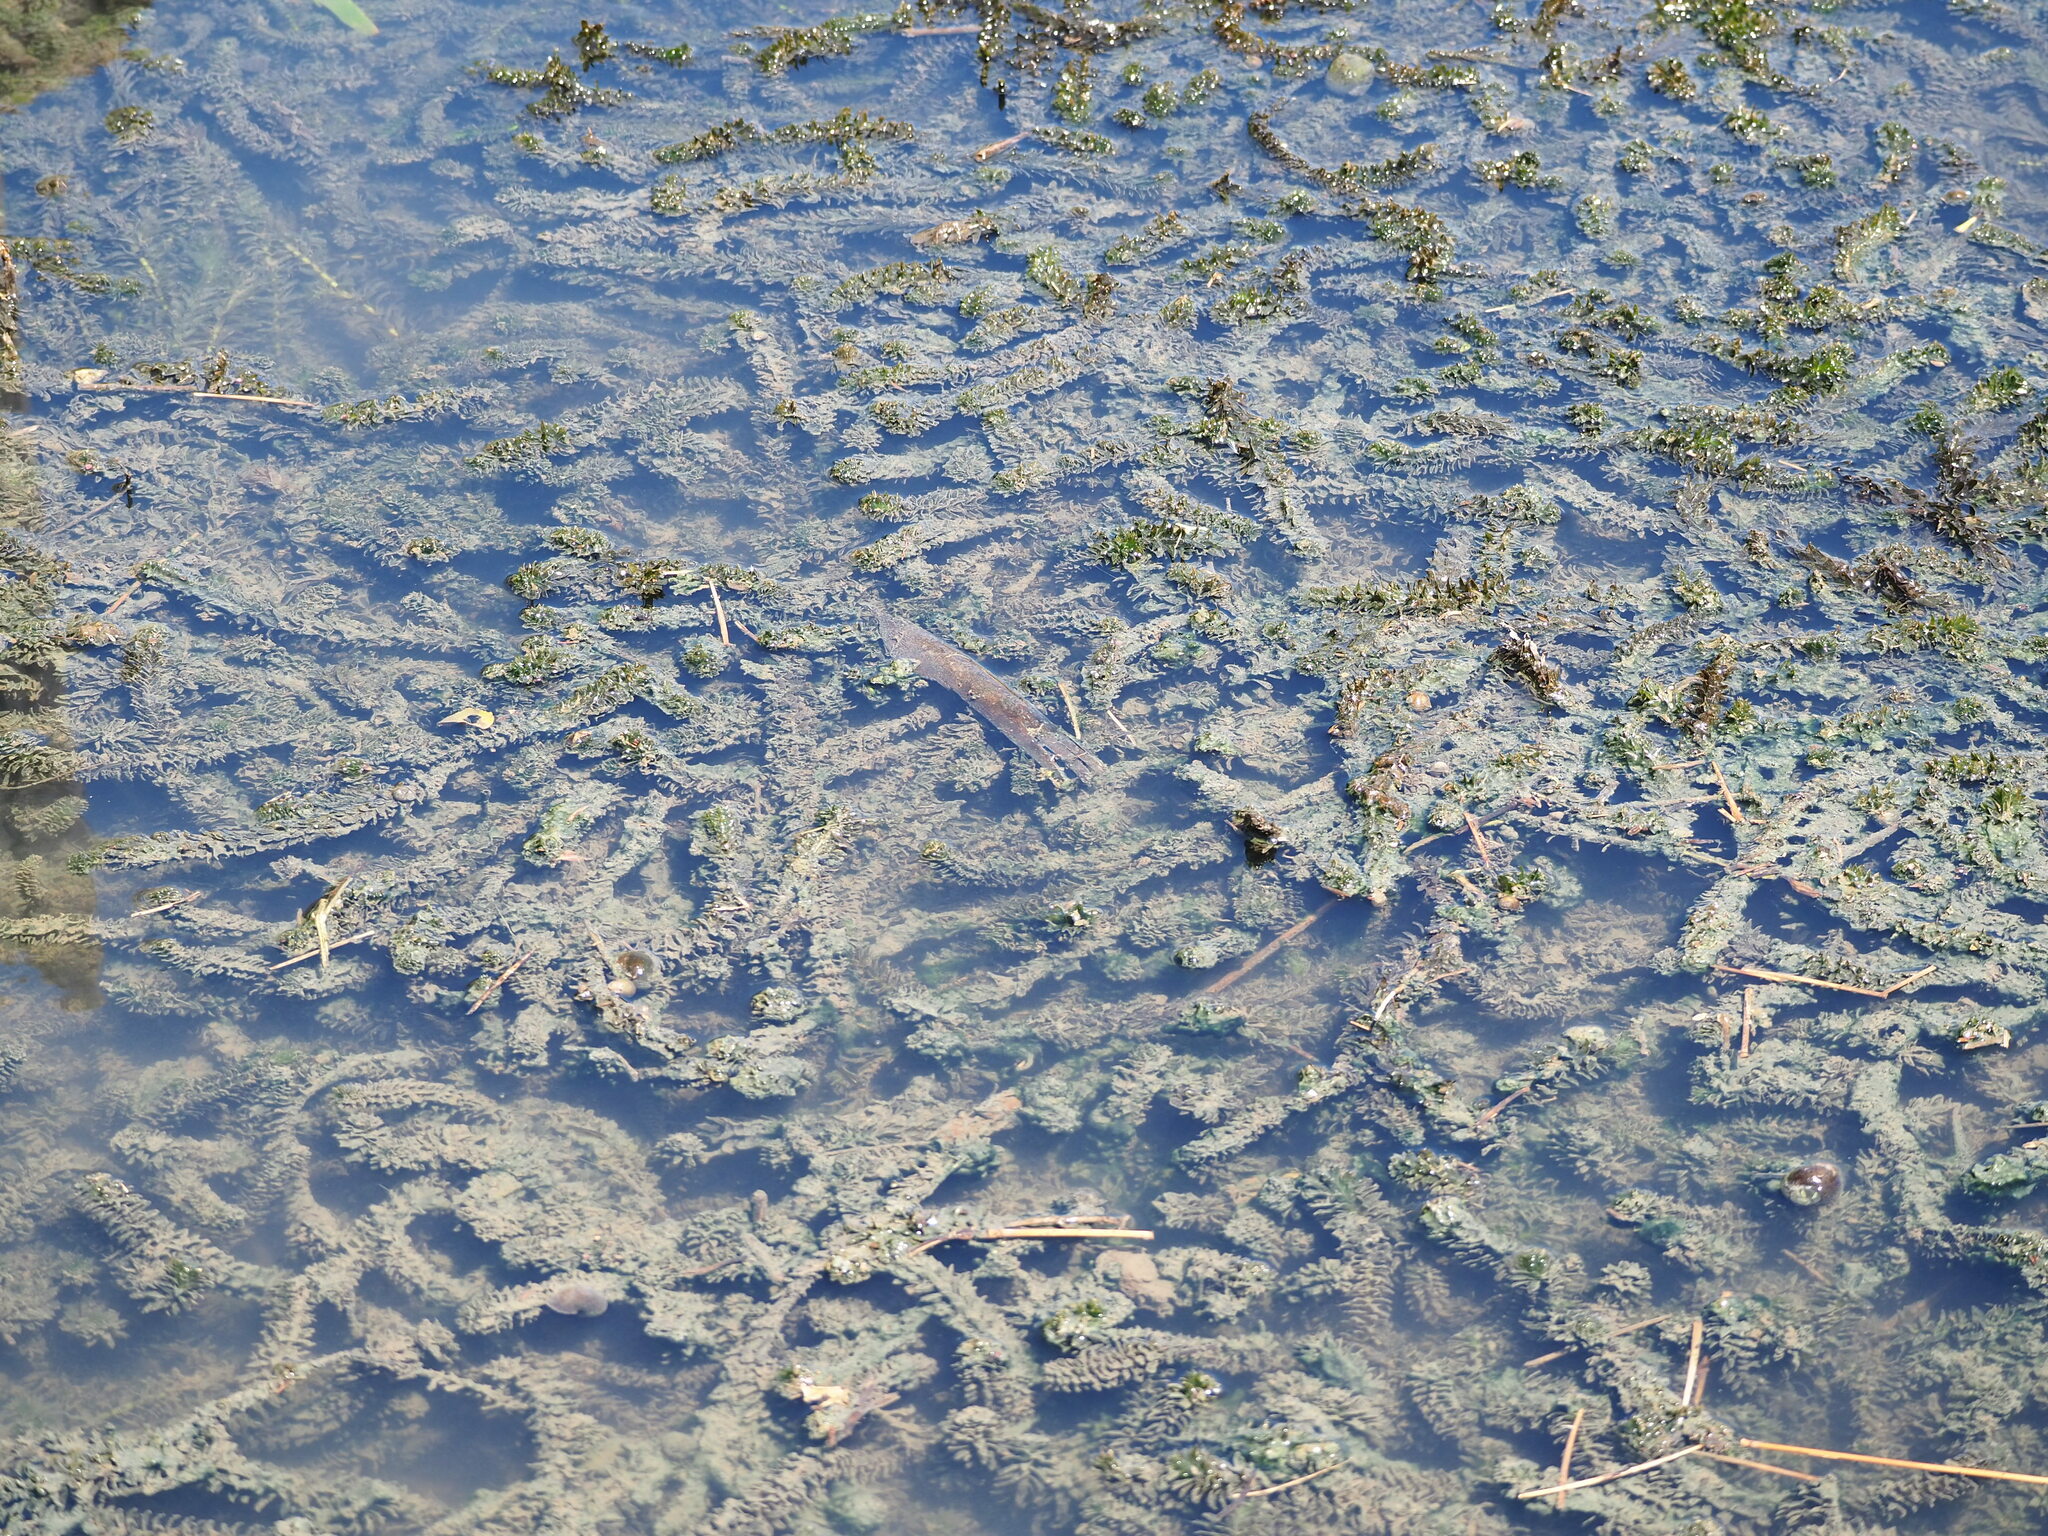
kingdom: Plantae
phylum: Tracheophyta
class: Liliopsida
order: Alismatales
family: Hydrocharitaceae
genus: Elodea
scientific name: Elodea densa
